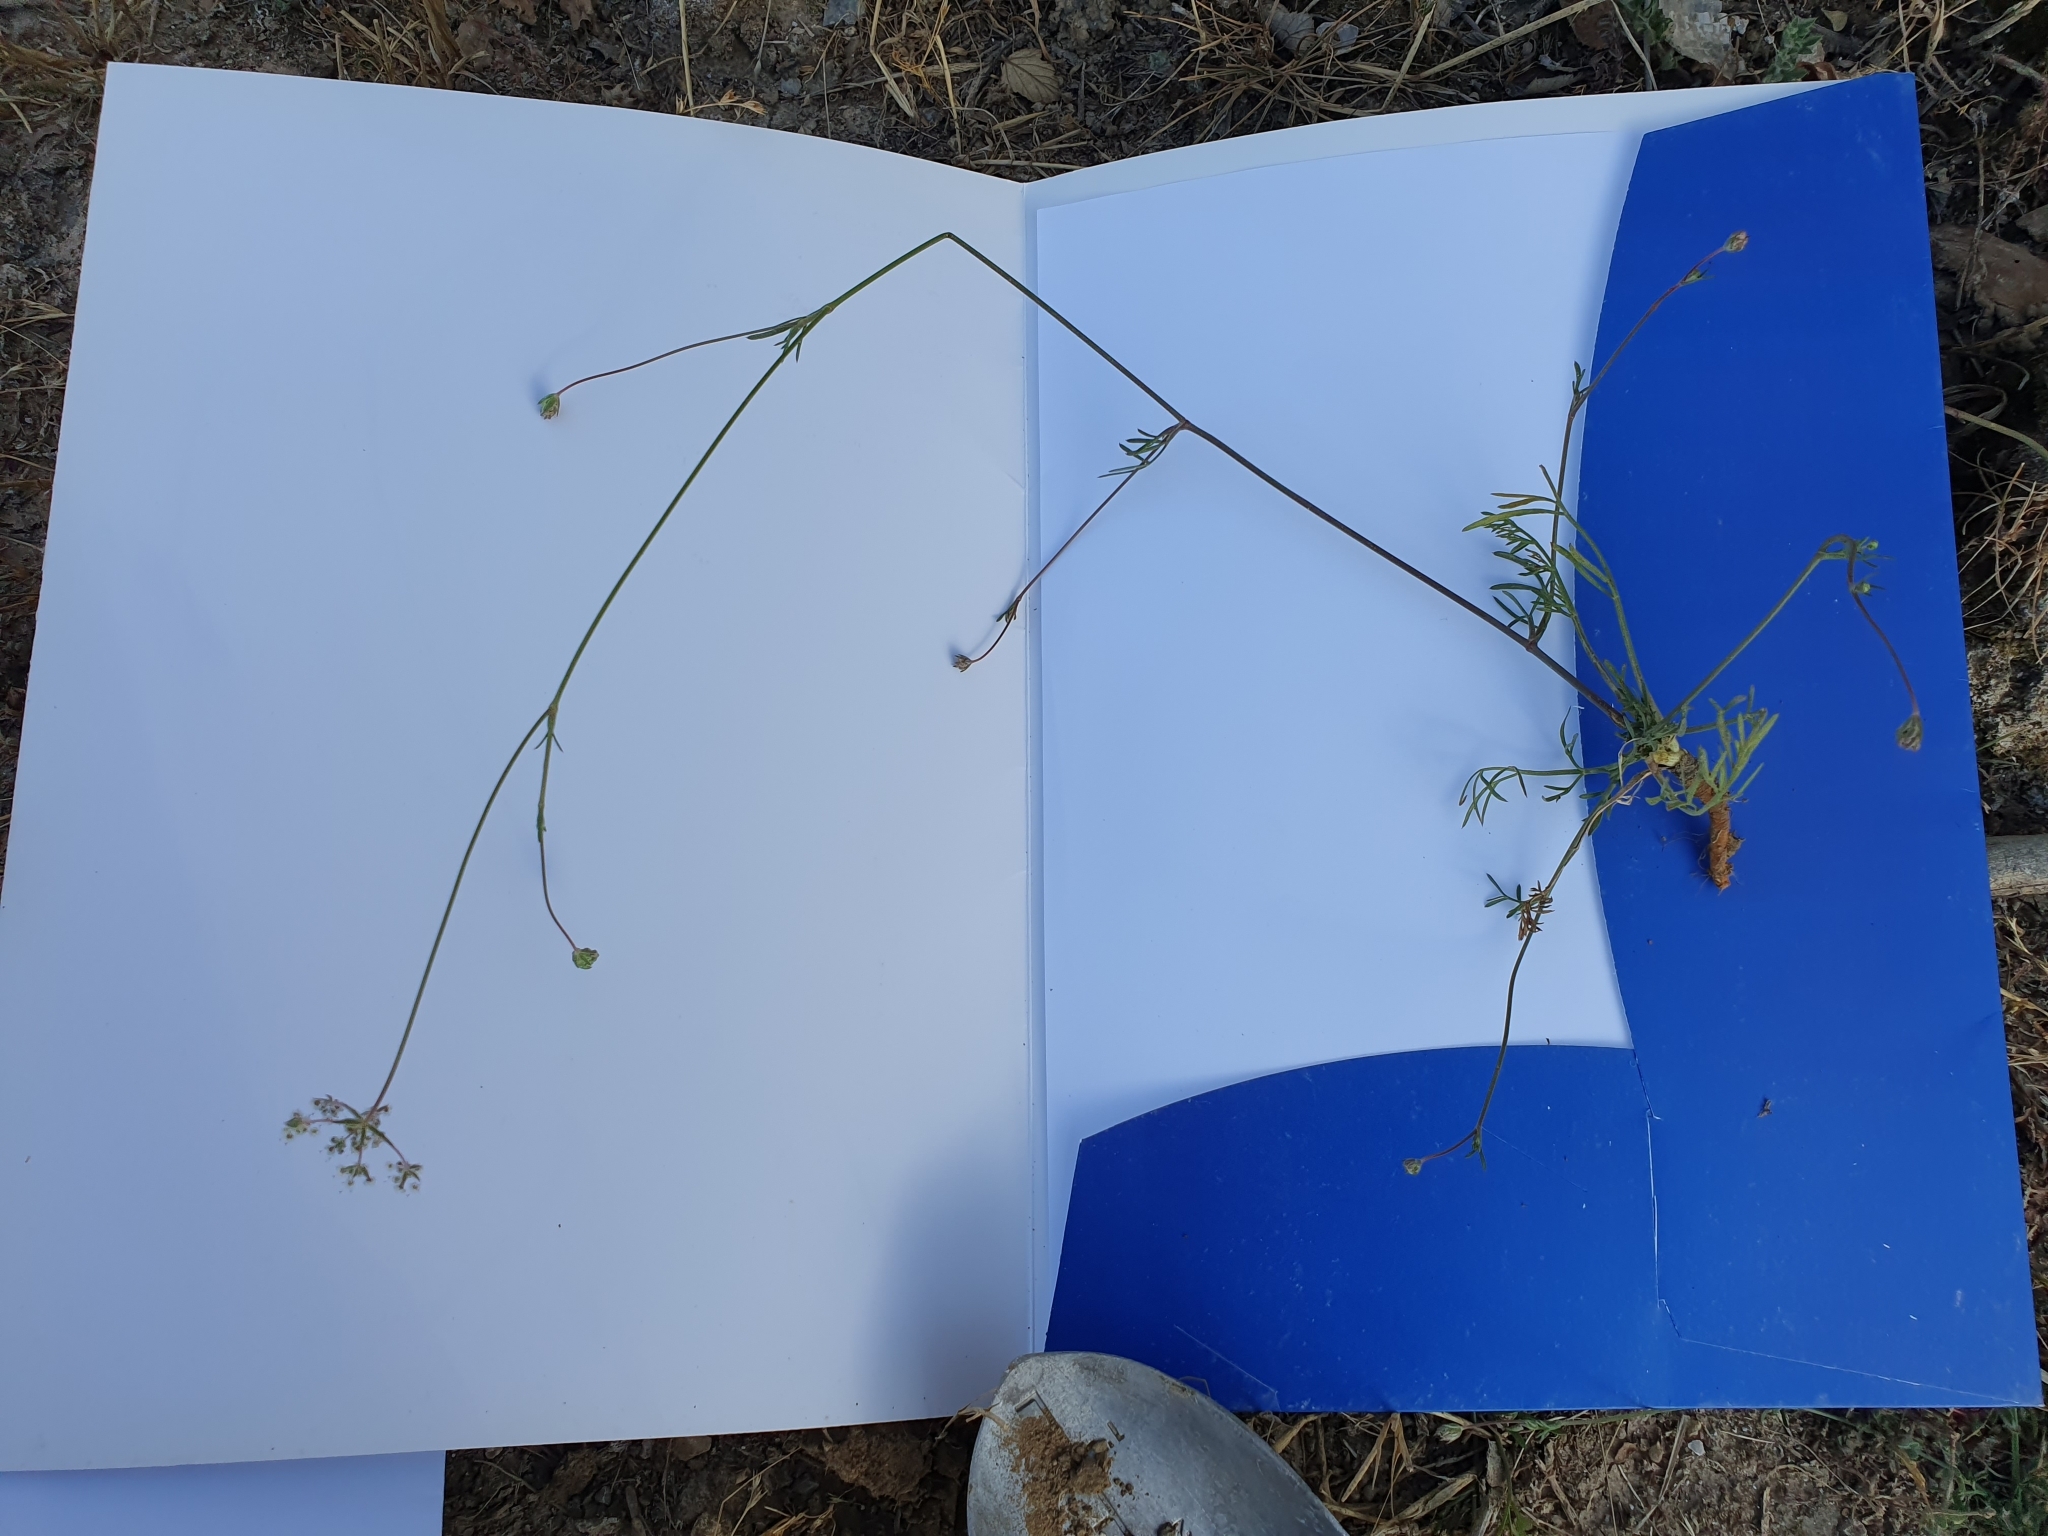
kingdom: Plantae
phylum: Tracheophyta
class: Magnoliopsida
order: Apiales
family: Apiaceae
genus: Daucus
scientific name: Daucus virgatus
